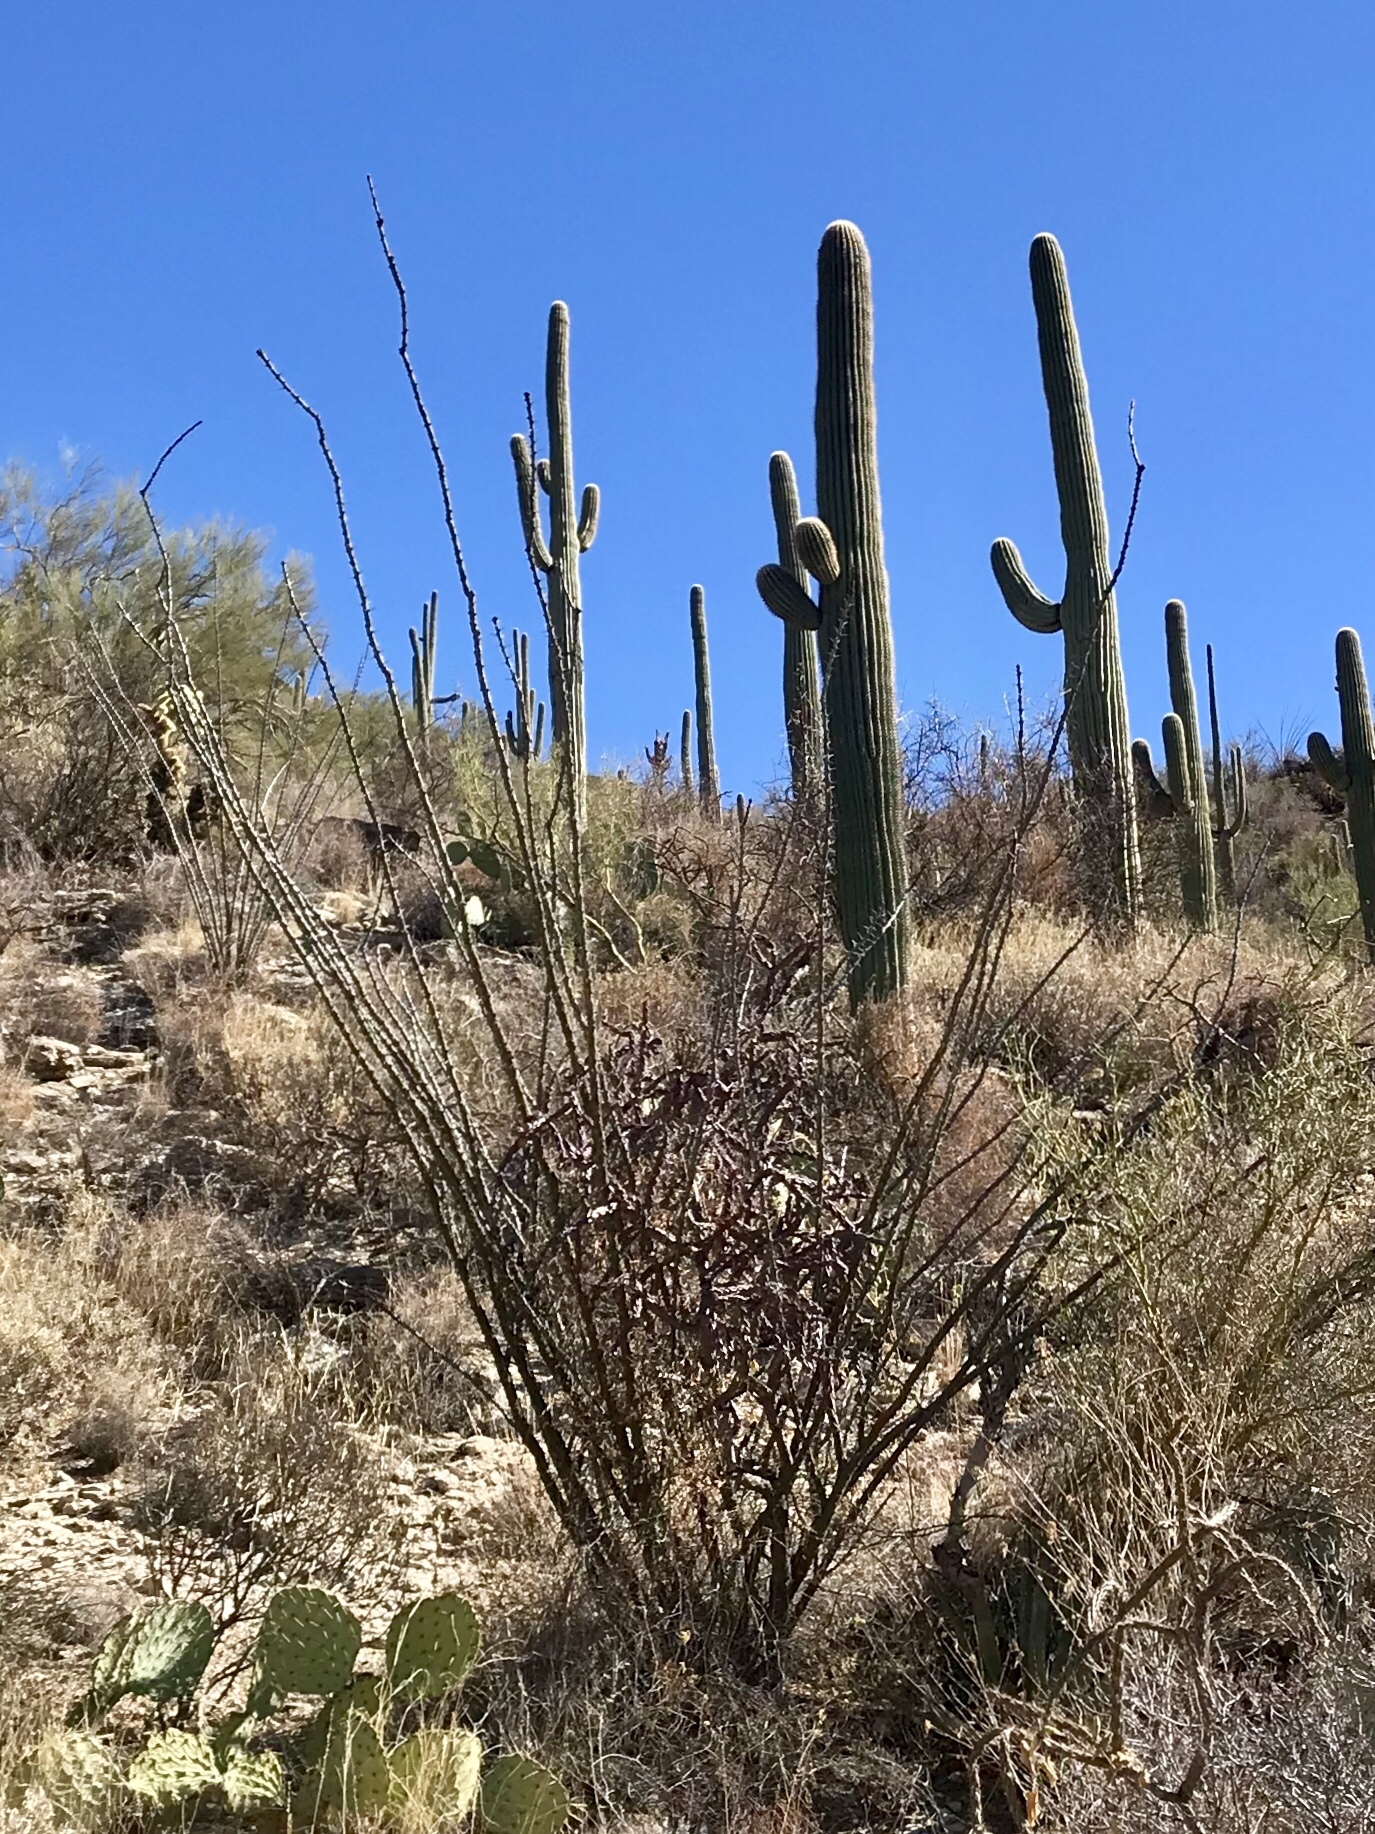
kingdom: Plantae
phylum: Tracheophyta
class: Magnoliopsida
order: Ericales
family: Fouquieriaceae
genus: Fouquieria
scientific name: Fouquieria splendens
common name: Vine-cactus
